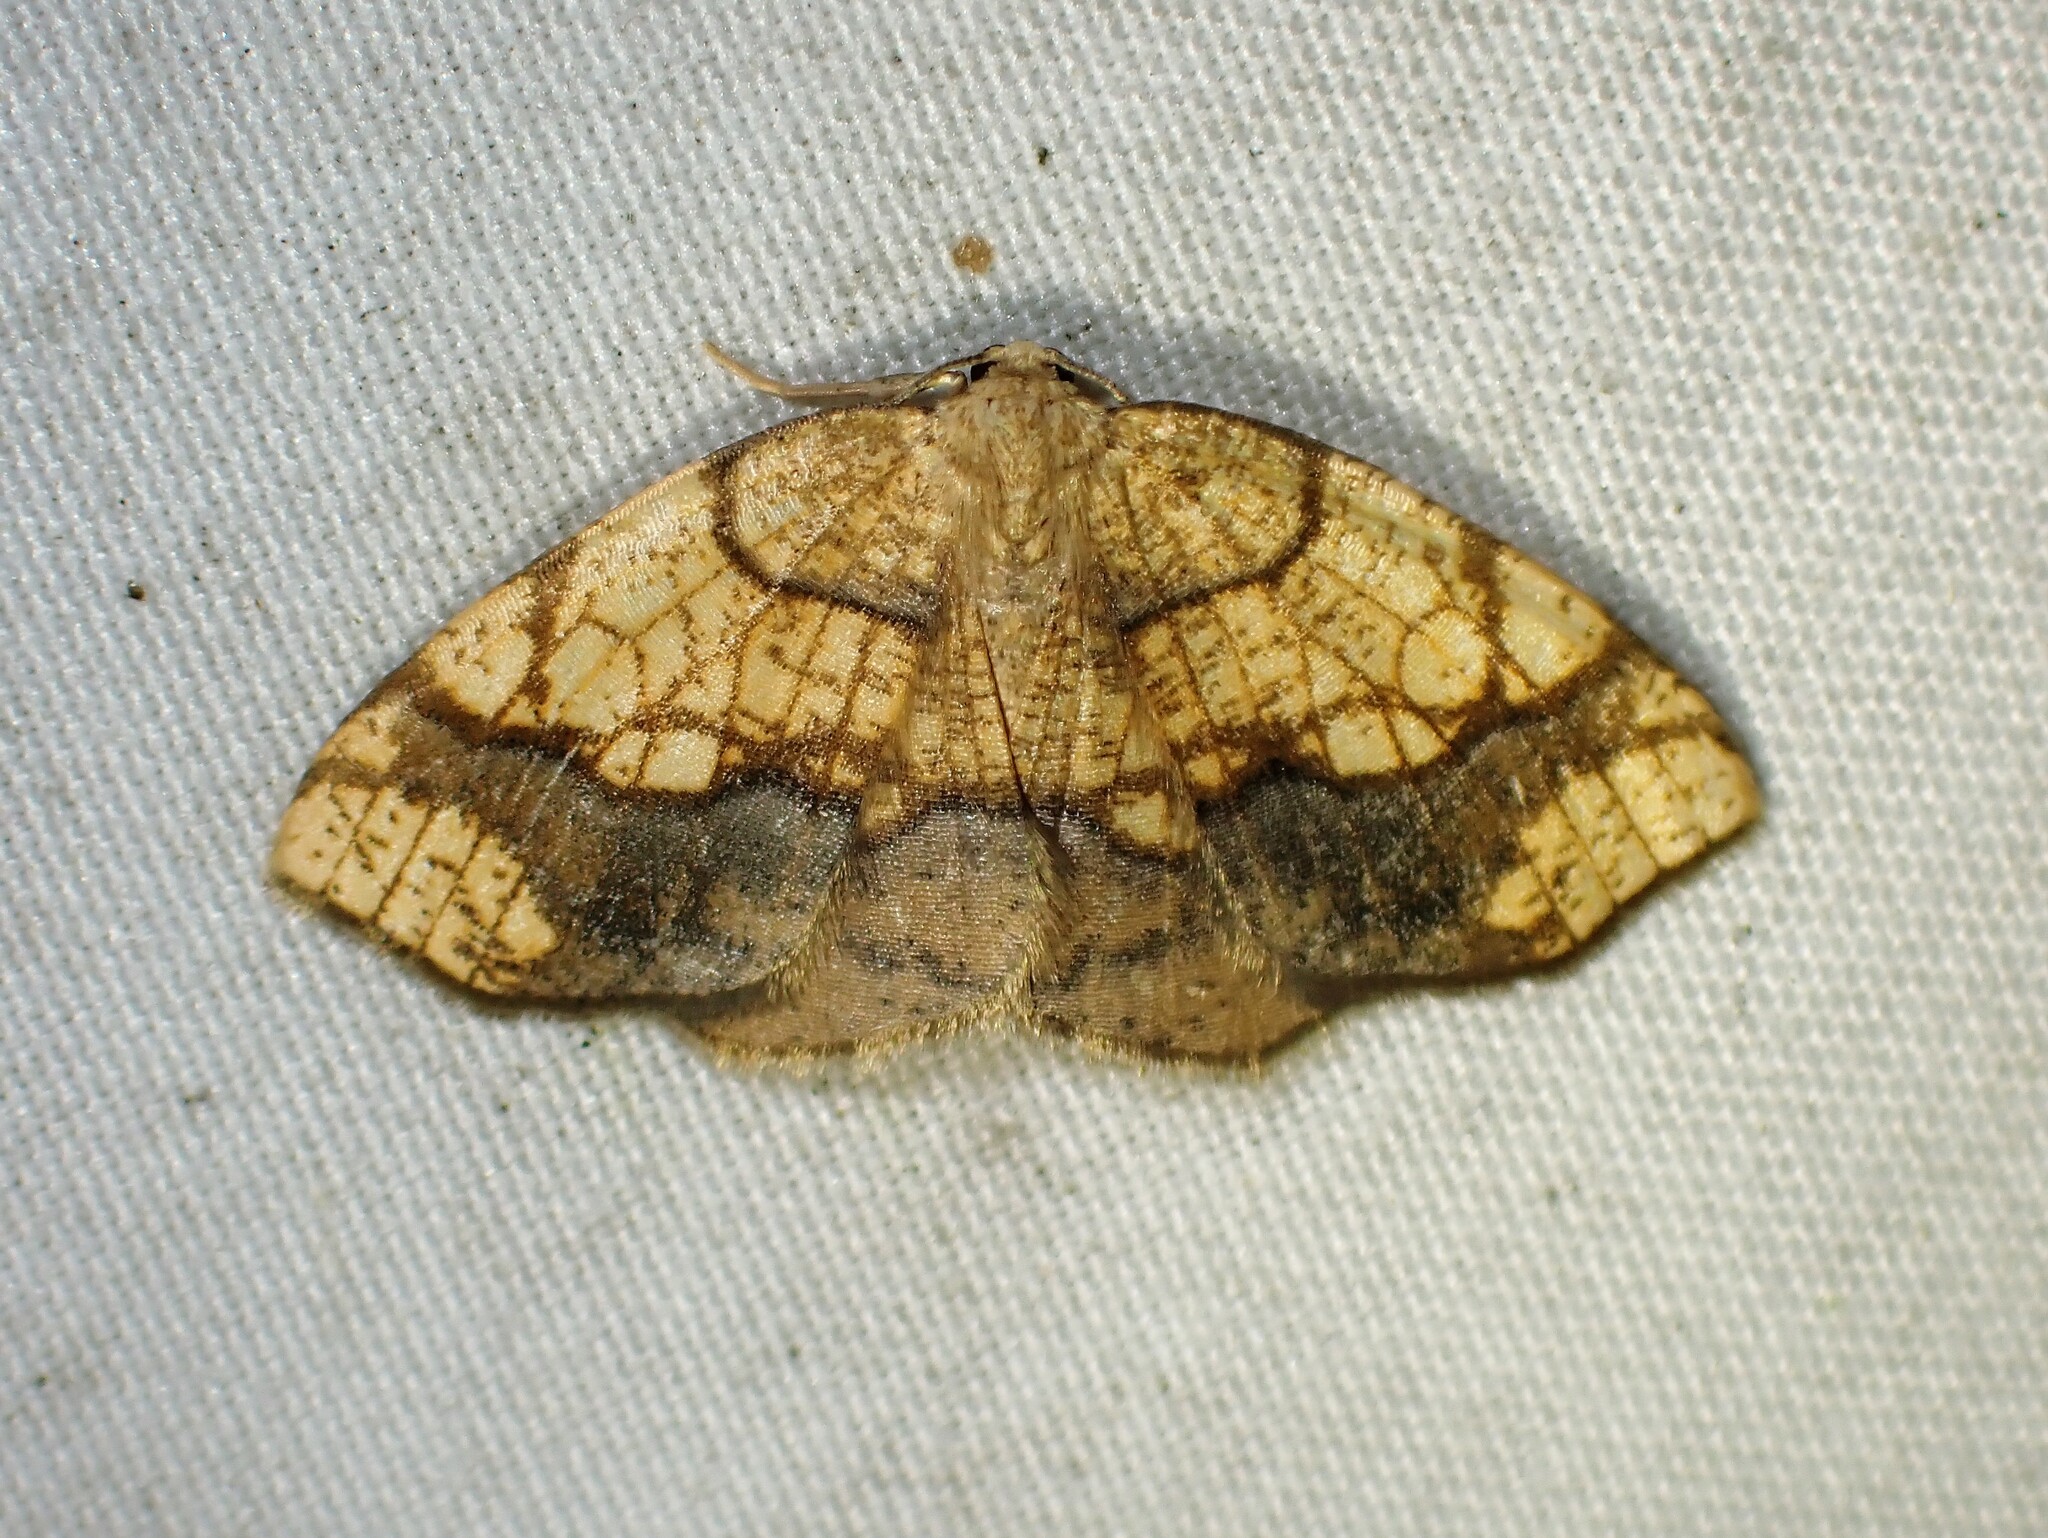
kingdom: Animalia
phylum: Arthropoda
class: Insecta
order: Lepidoptera
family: Geometridae
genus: Nematocampa
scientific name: Nematocampa resistaria
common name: Horned spanworm moth
